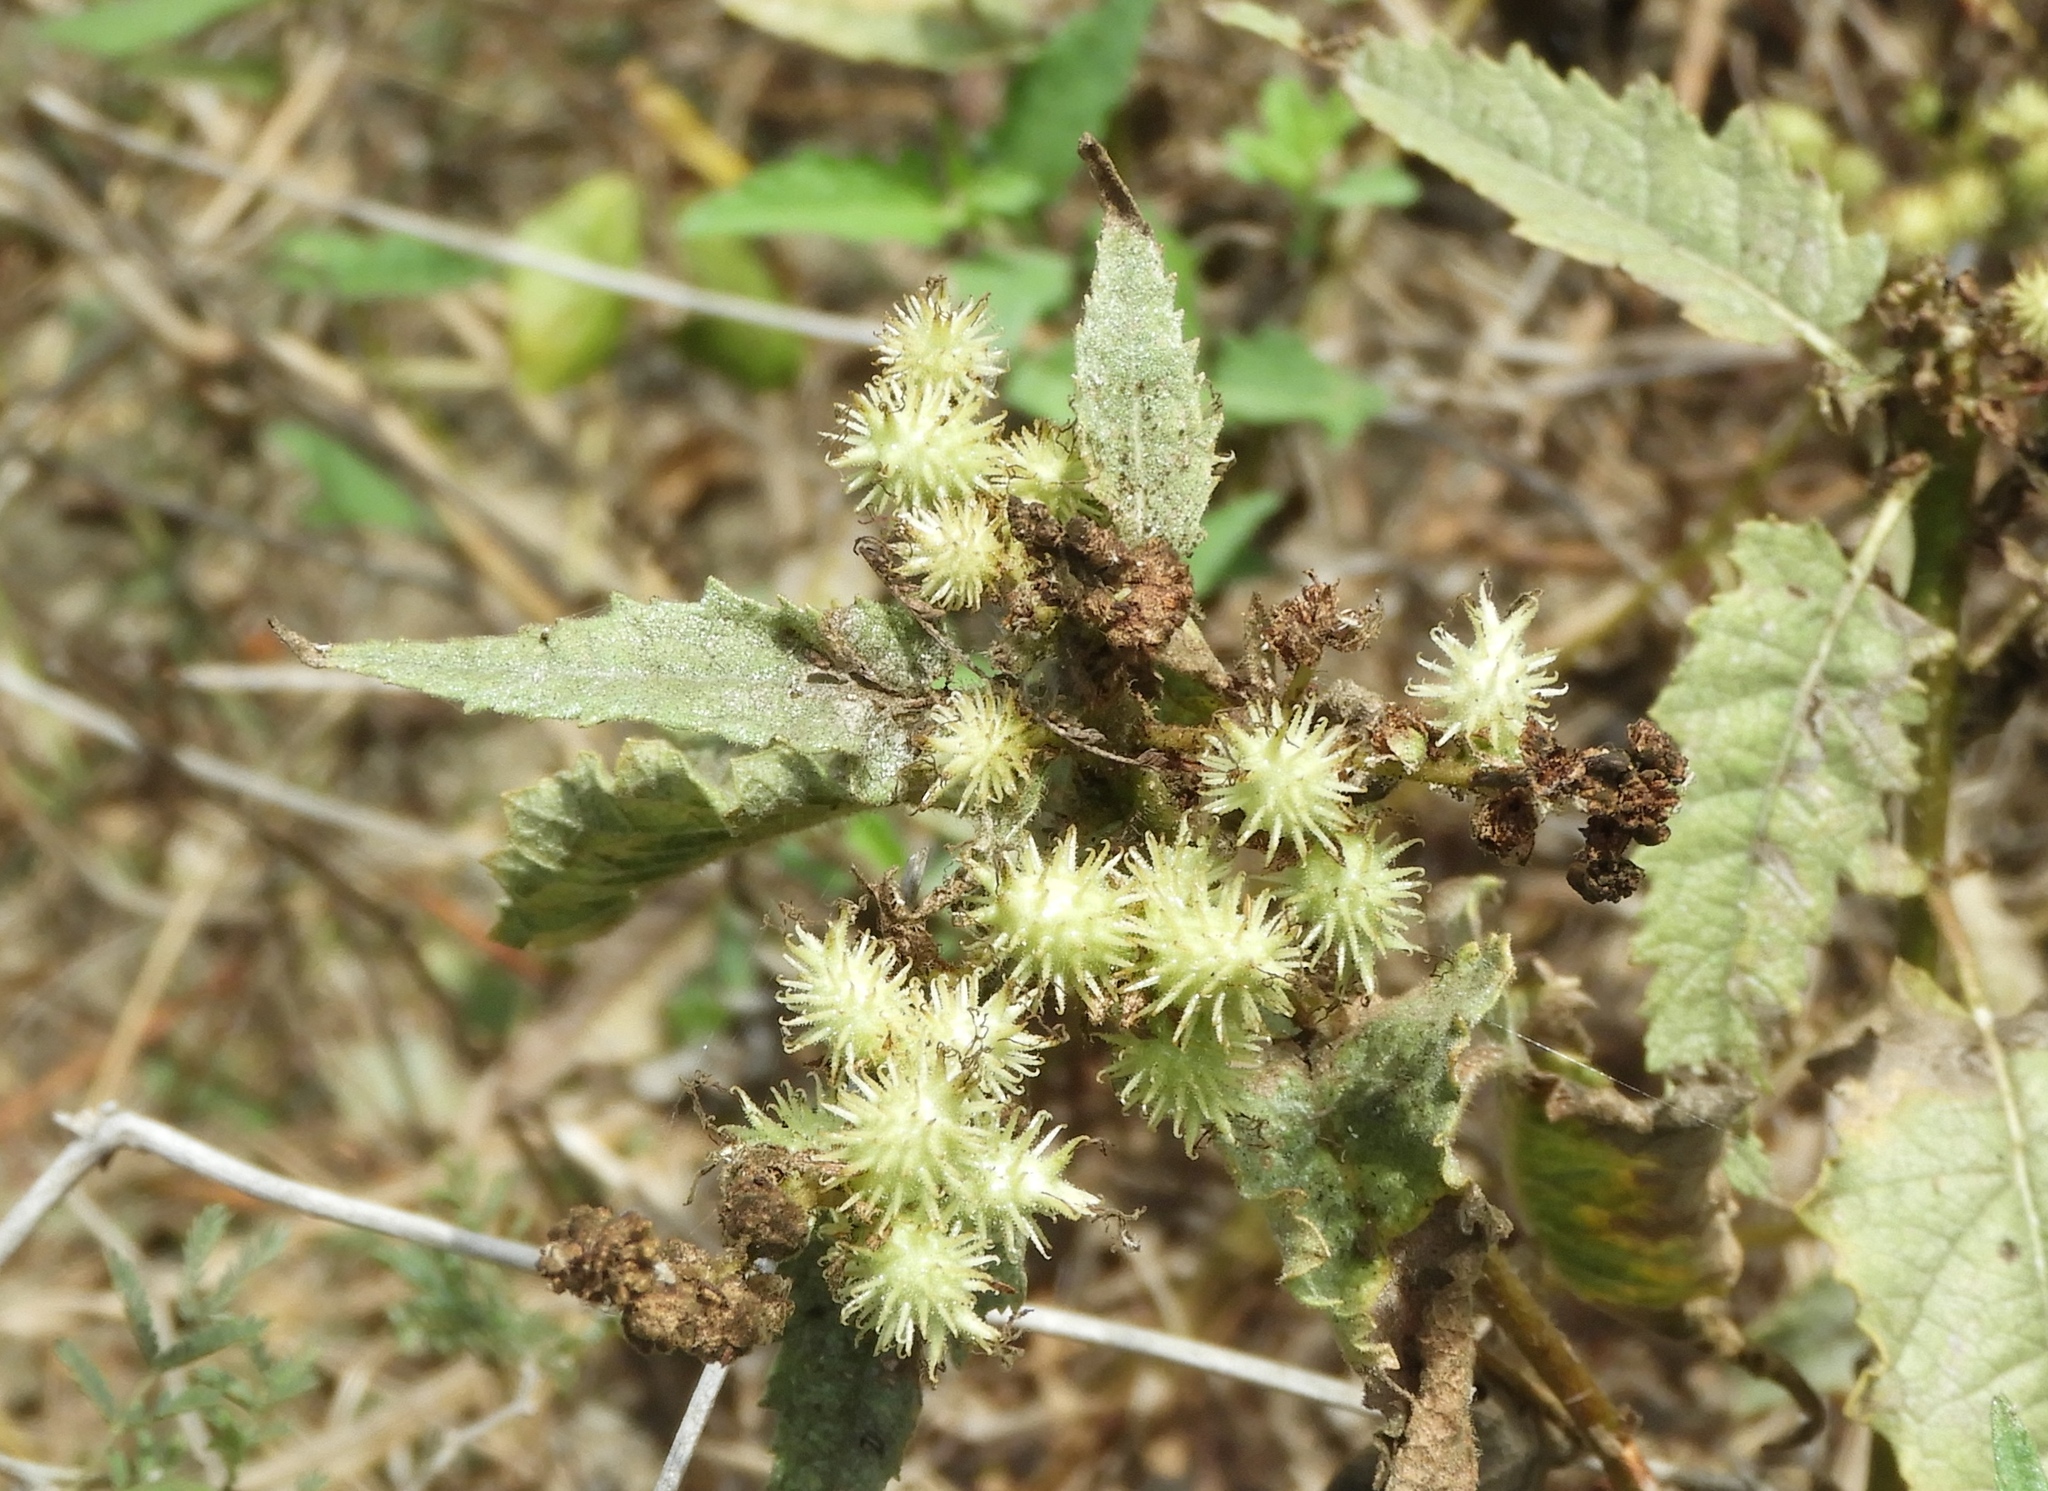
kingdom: Plantae
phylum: Tracheophyta
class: Magnoliopsida
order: Asterales
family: Asteraceae
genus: Ambrosia
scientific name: Ambrosia ambrosioides
